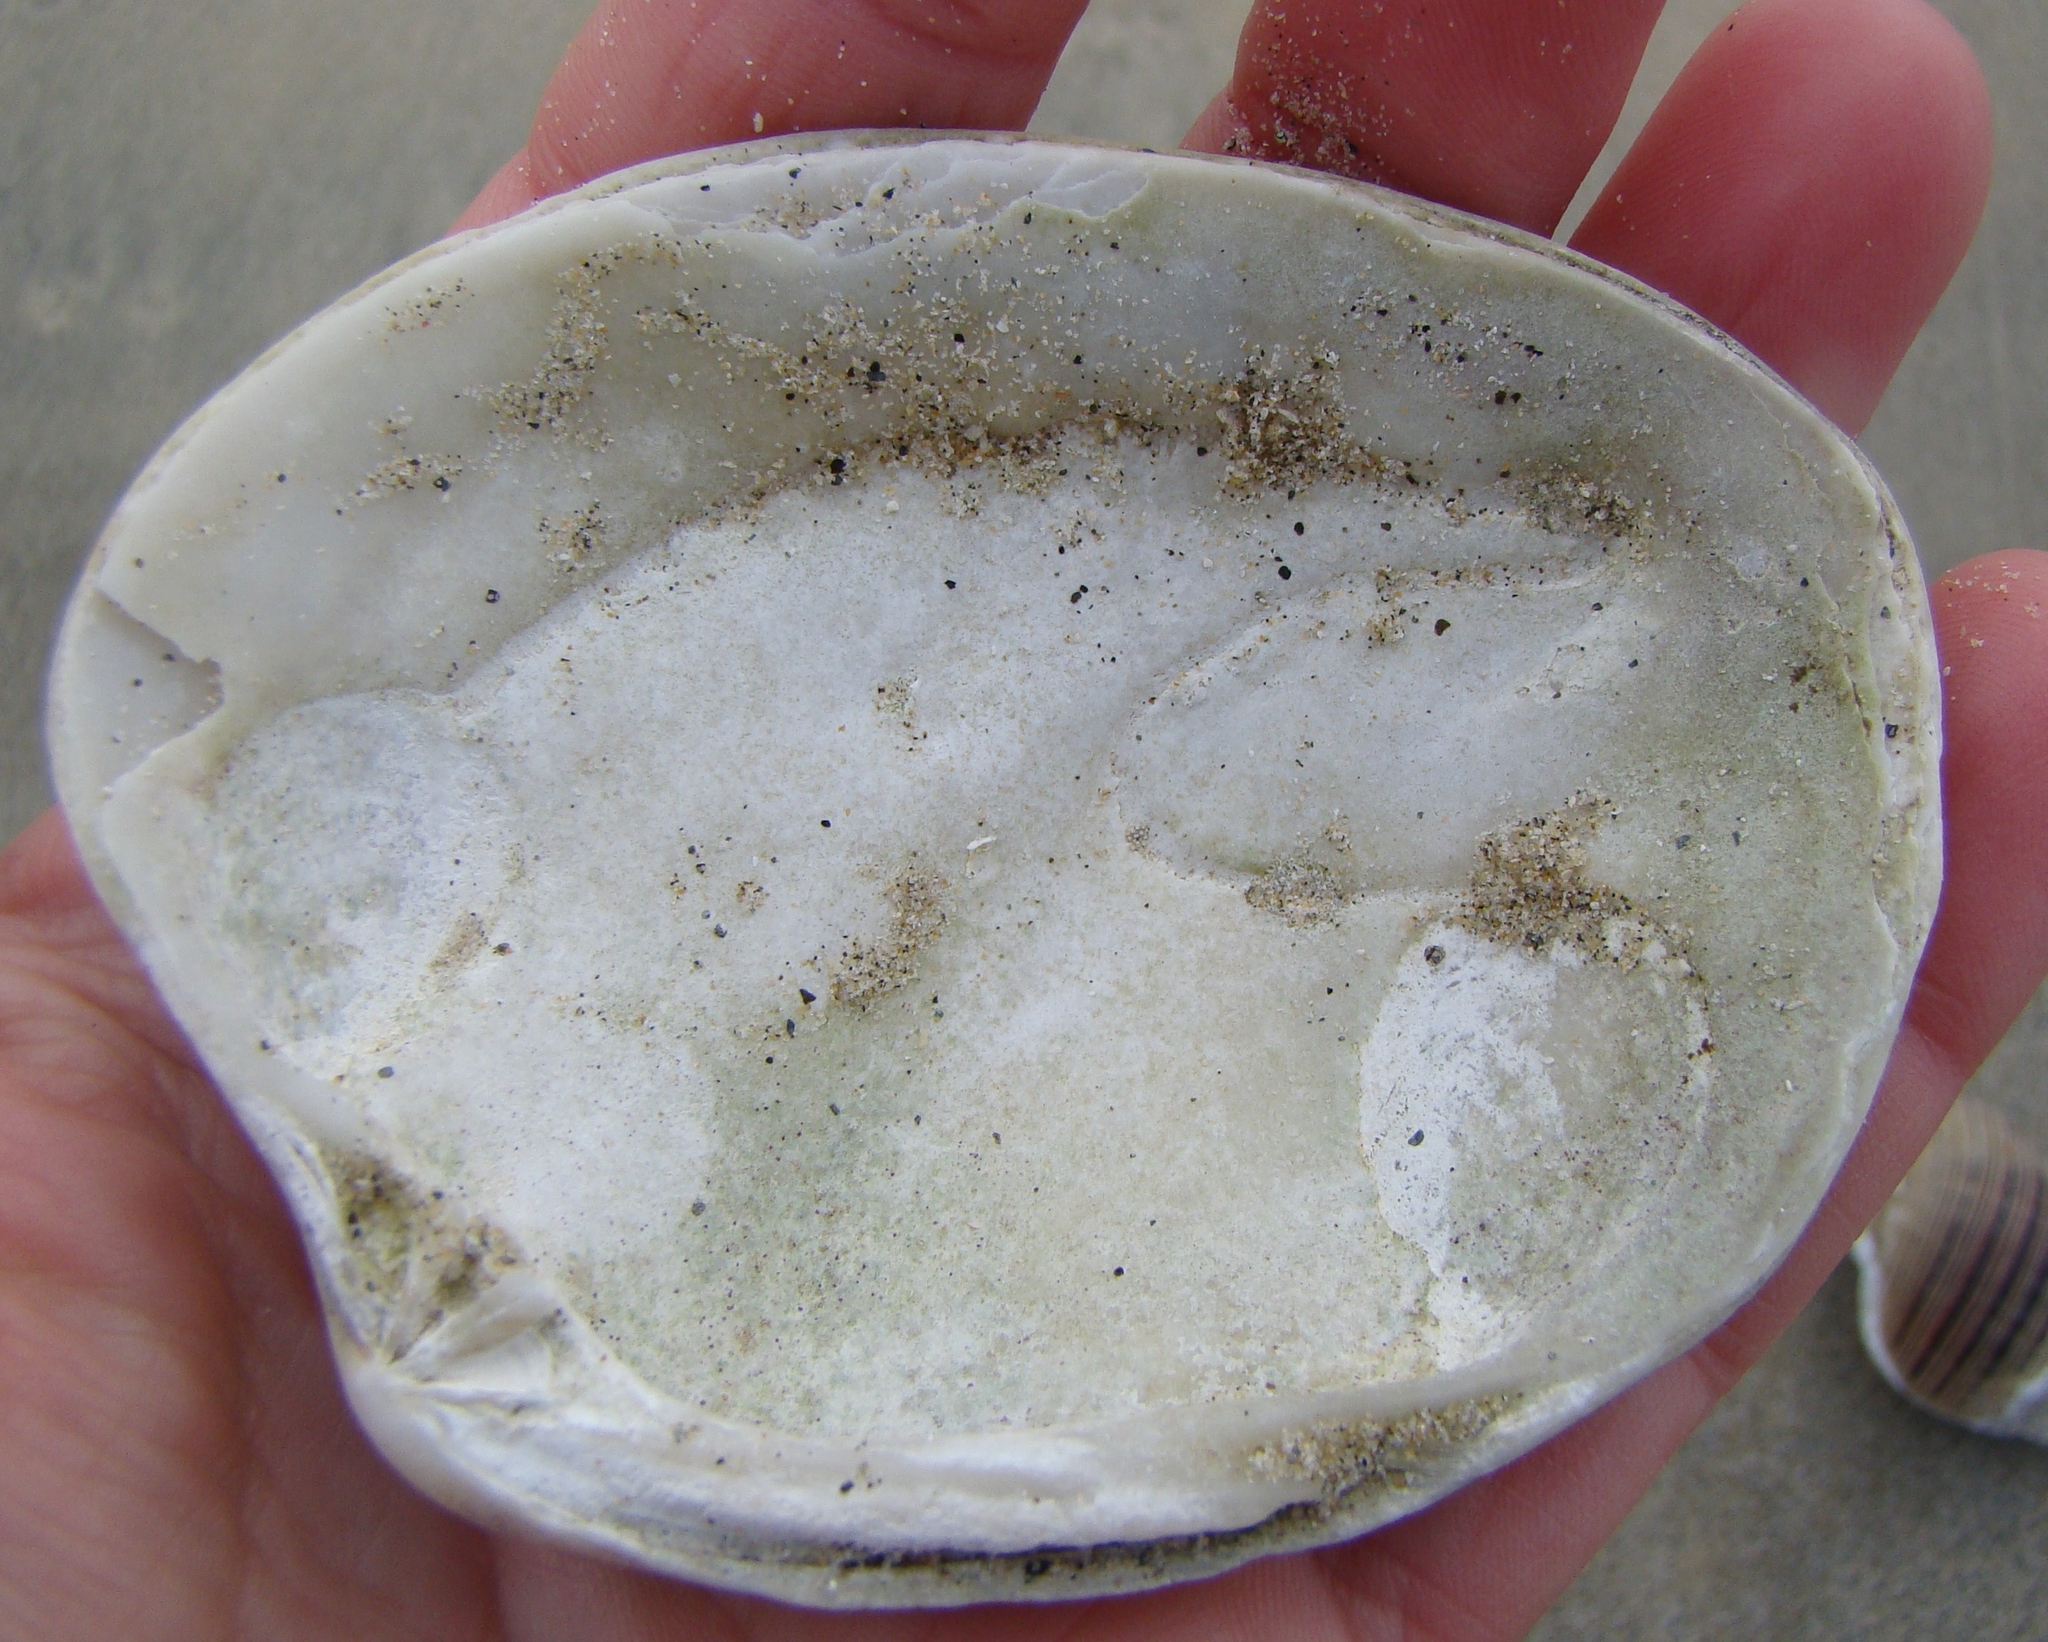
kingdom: Animalia
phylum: Mollusca
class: Bivalvia
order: Venerida
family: Veneridae
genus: Venerupis
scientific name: Venerupis largillierti
